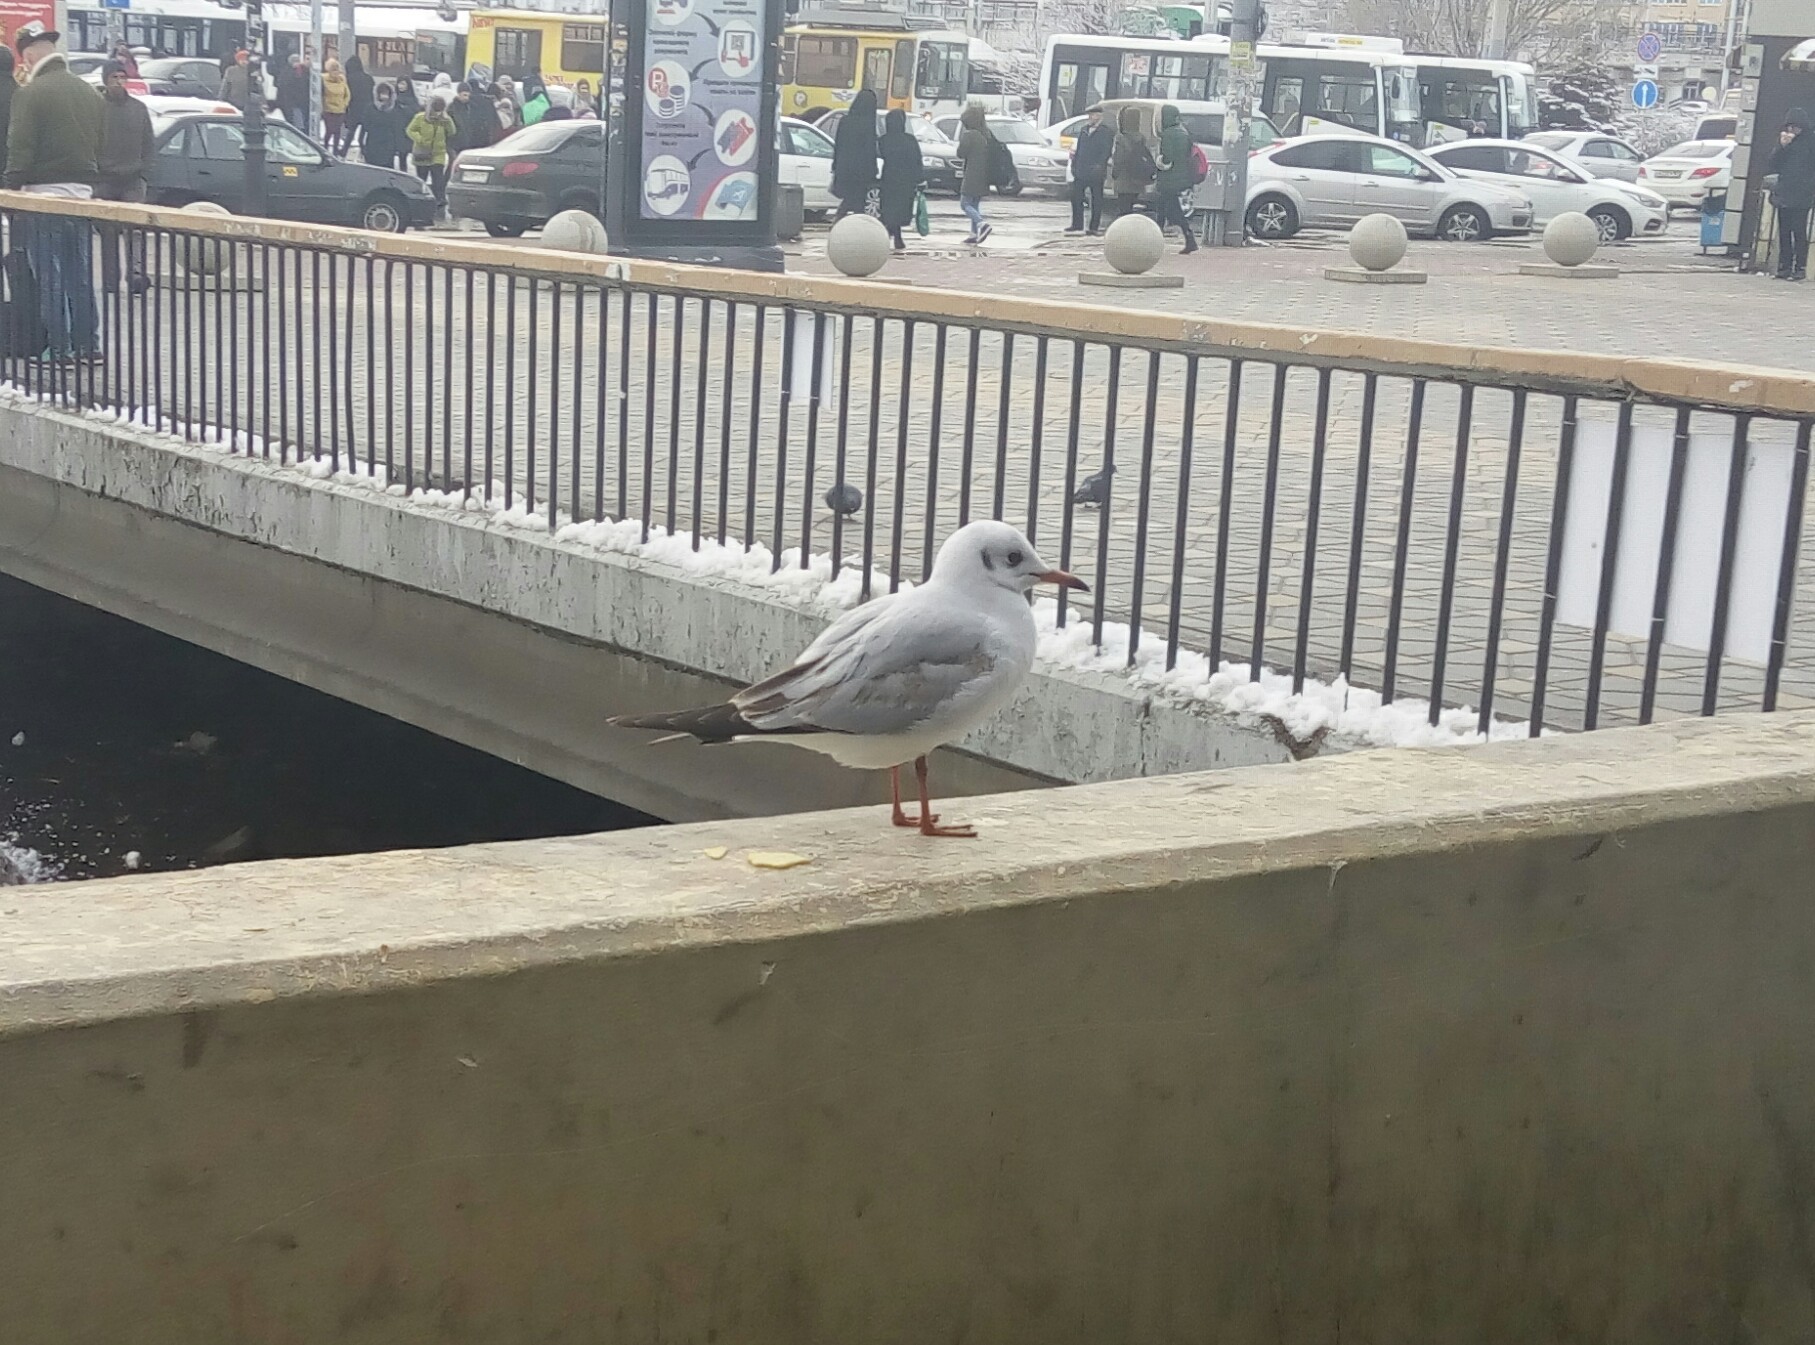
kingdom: Animalia
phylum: Chordata
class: Aves
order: Charadriiformes
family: Laridae
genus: Chroicocephalus
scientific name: Chroicocephalus ridibundus
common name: Black-headed gull
